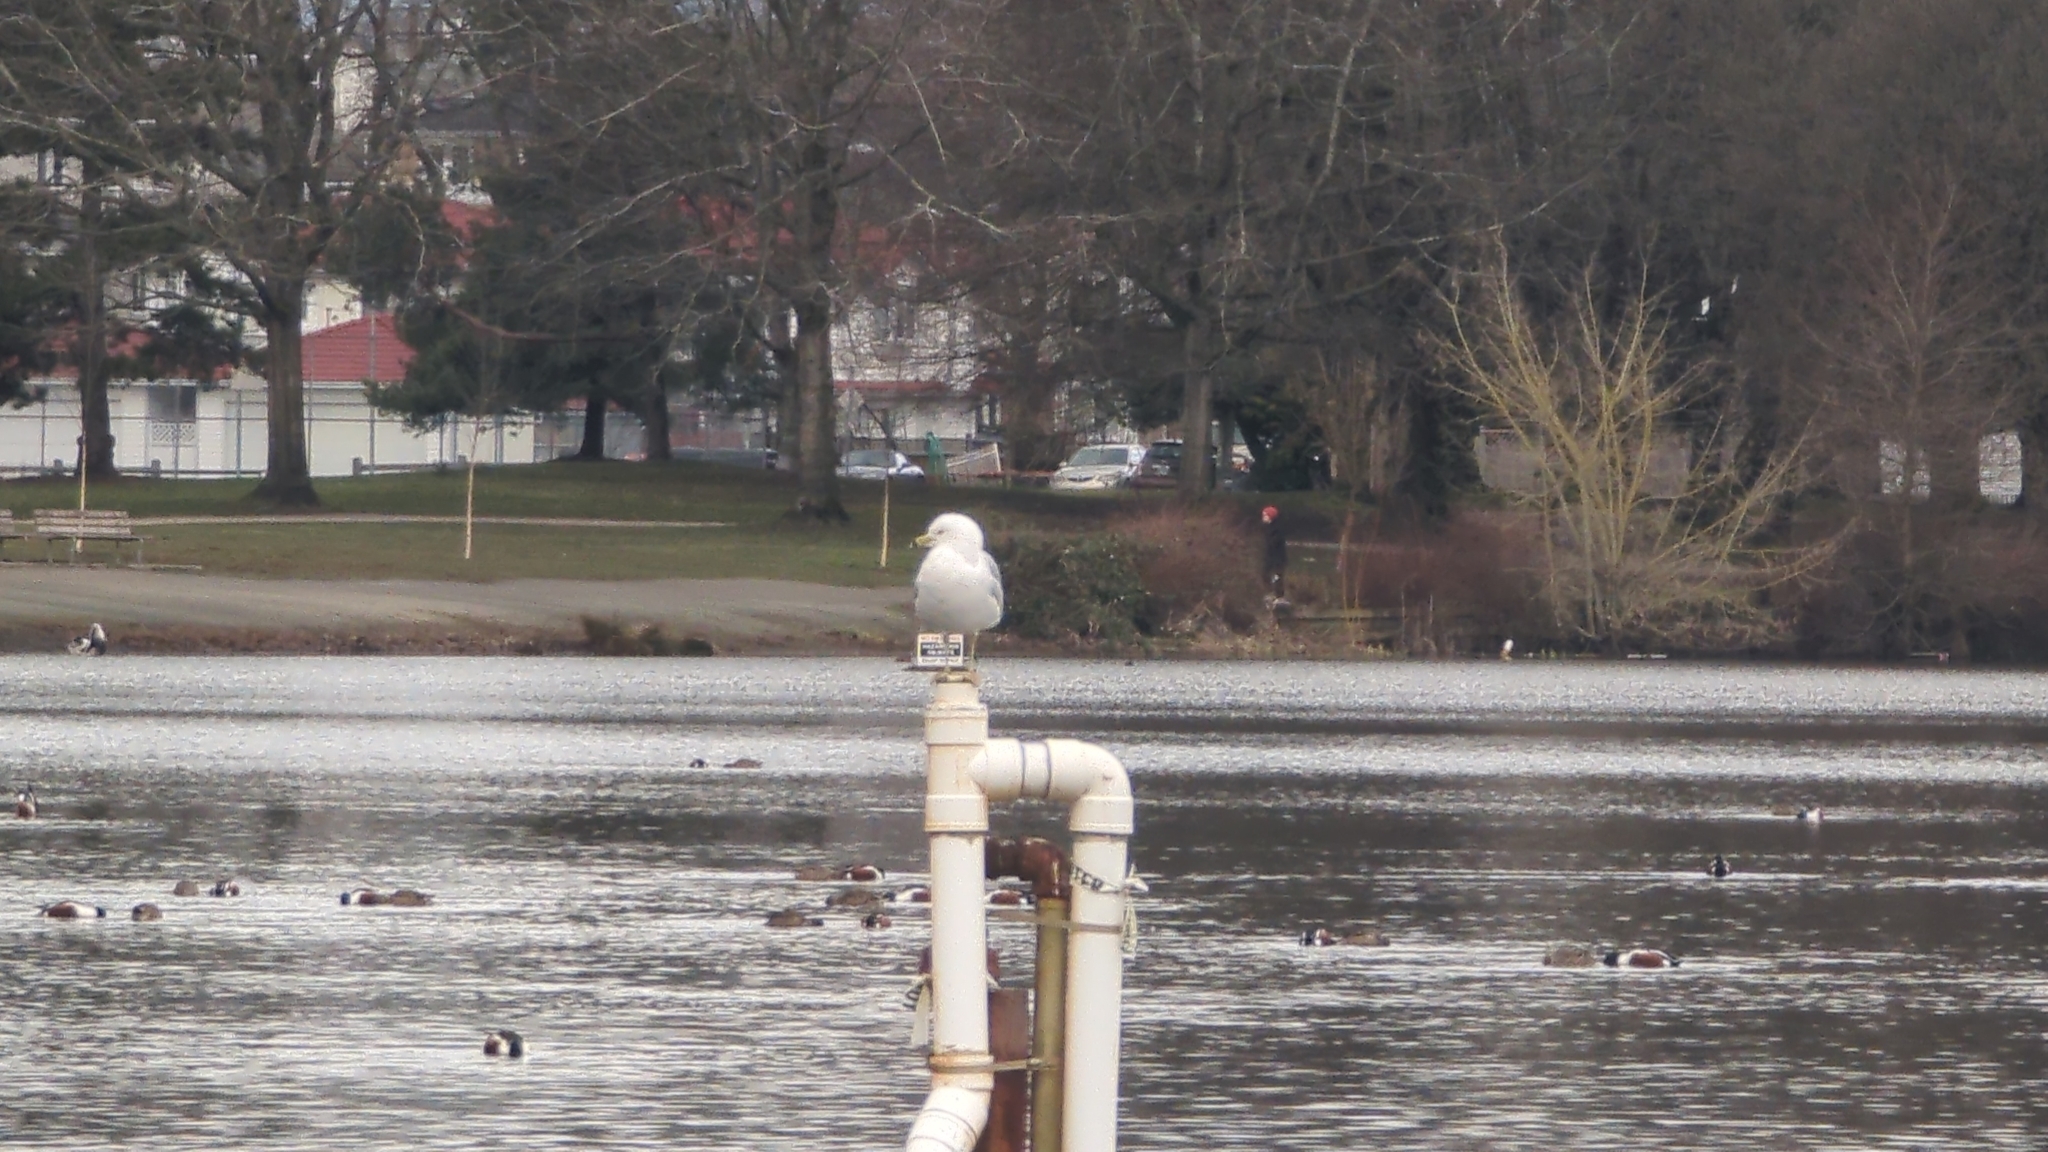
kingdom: Animalia
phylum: Chordata
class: Aves
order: Charadriiformes
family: Laridae
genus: Larus
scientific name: Larus delawarensis
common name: Ring-billed gull
